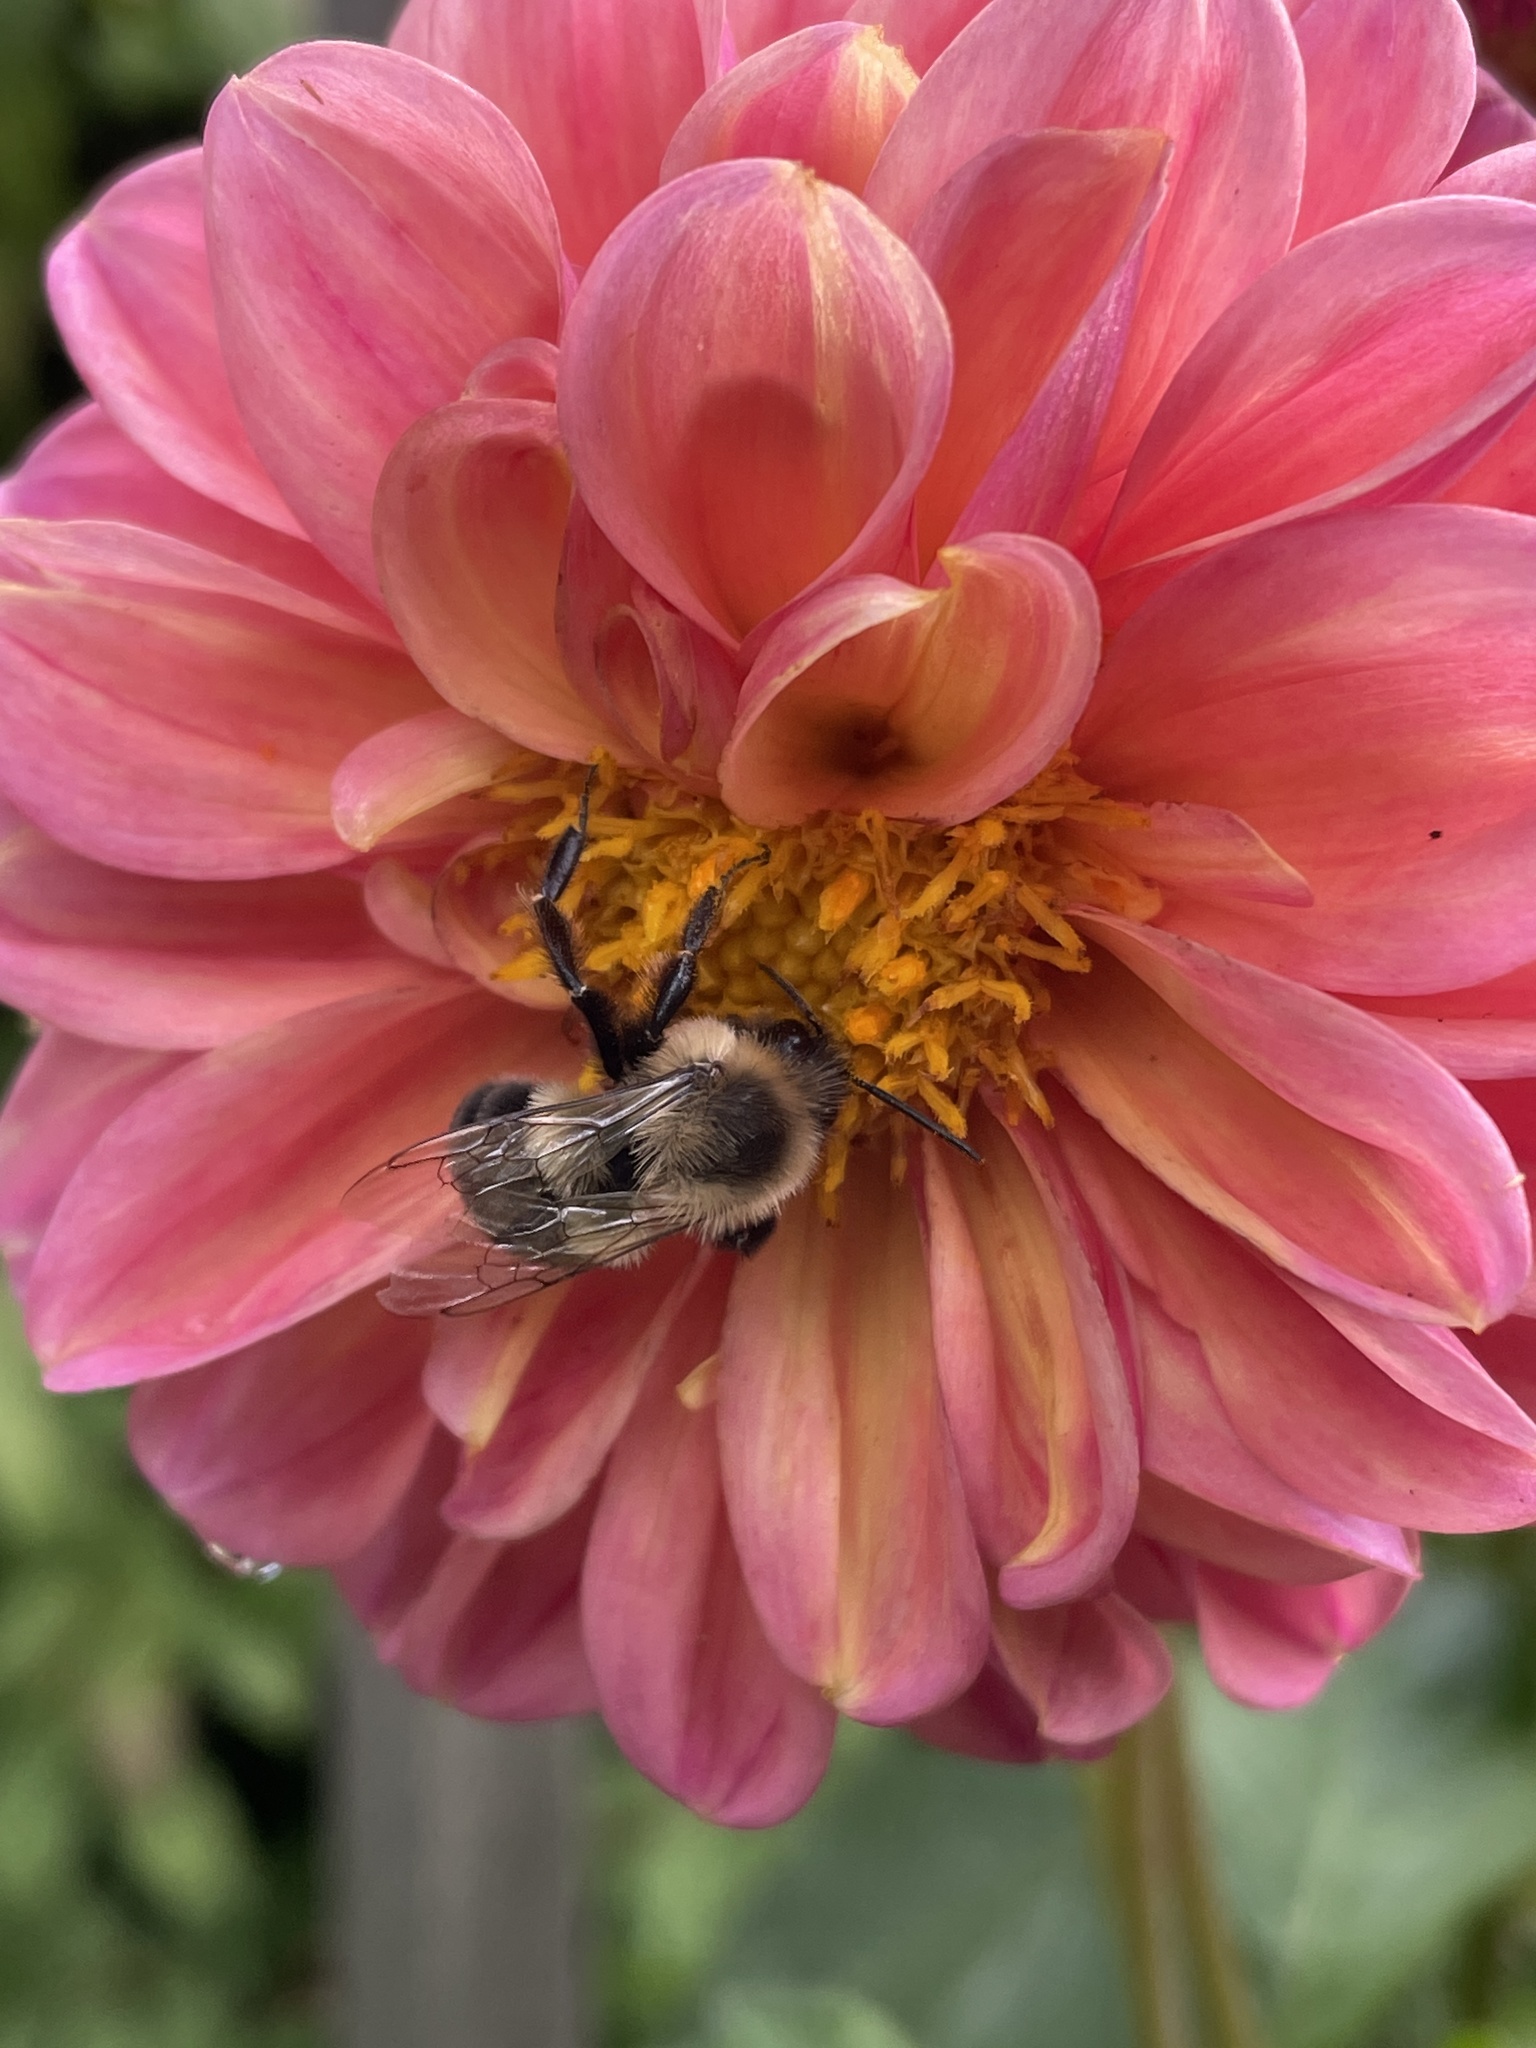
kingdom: Animalia
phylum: Arthropoda
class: Insecta
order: Hymenoptera
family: Apidae
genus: Bombus
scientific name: Bombus impatiens
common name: Common eastern bumble bee
